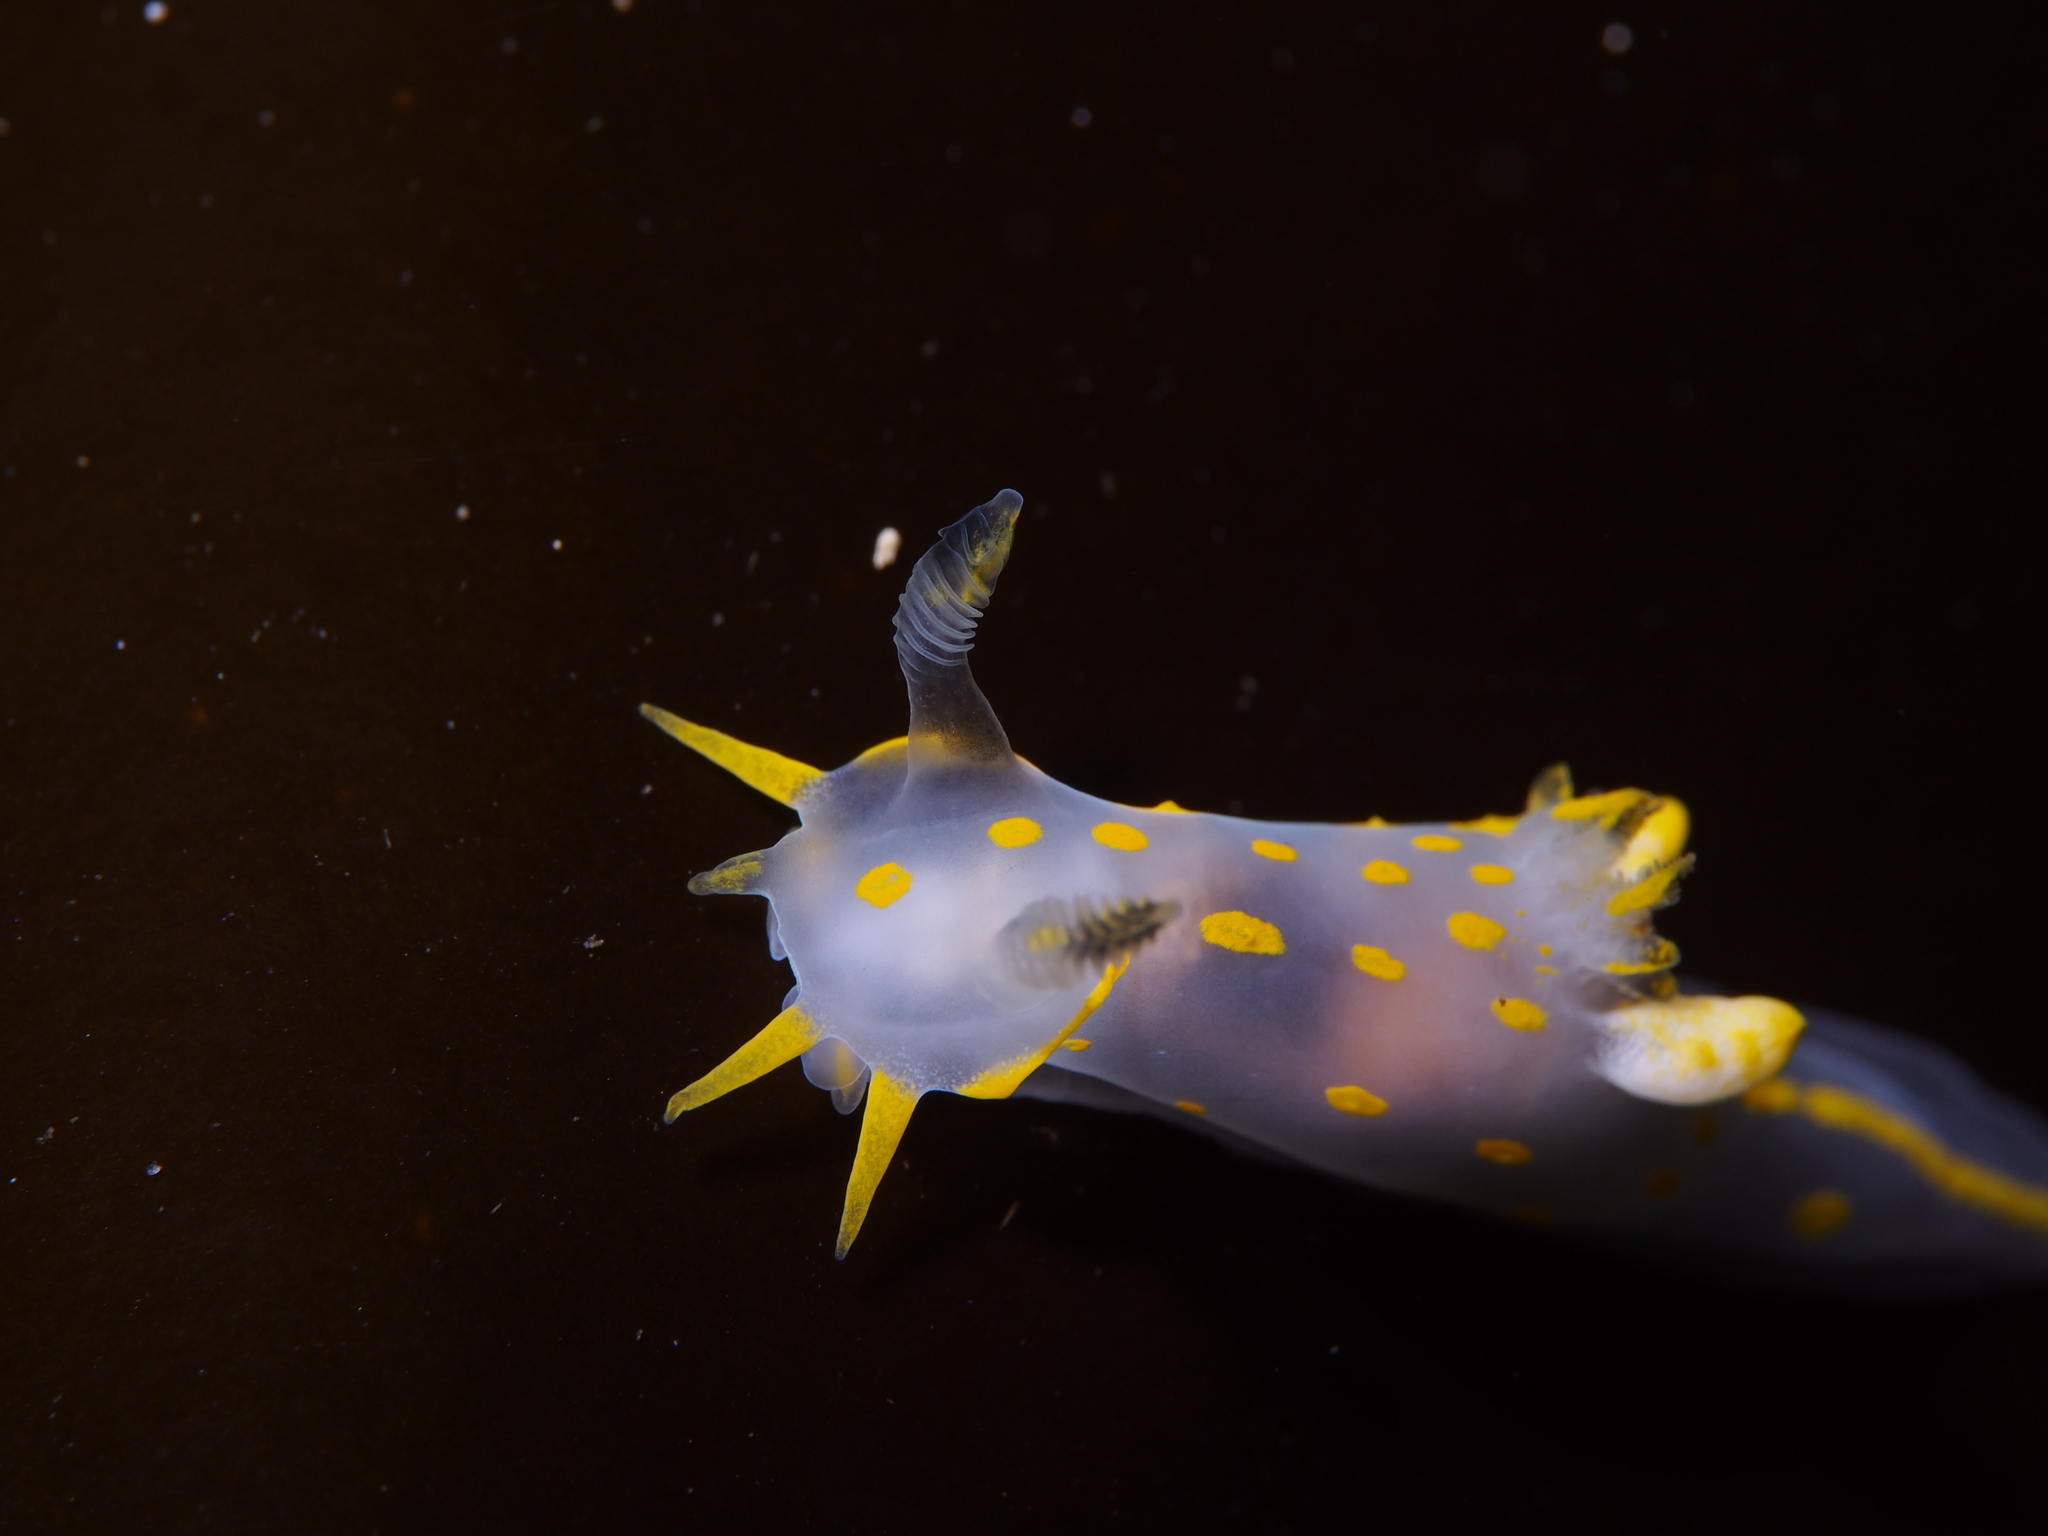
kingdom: Animalia
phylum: Mollusca
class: Gastropoda
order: Nudibranchia
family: Polyceridae
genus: Polycera
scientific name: Polycera quadrilineata
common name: Four-striped polycera
